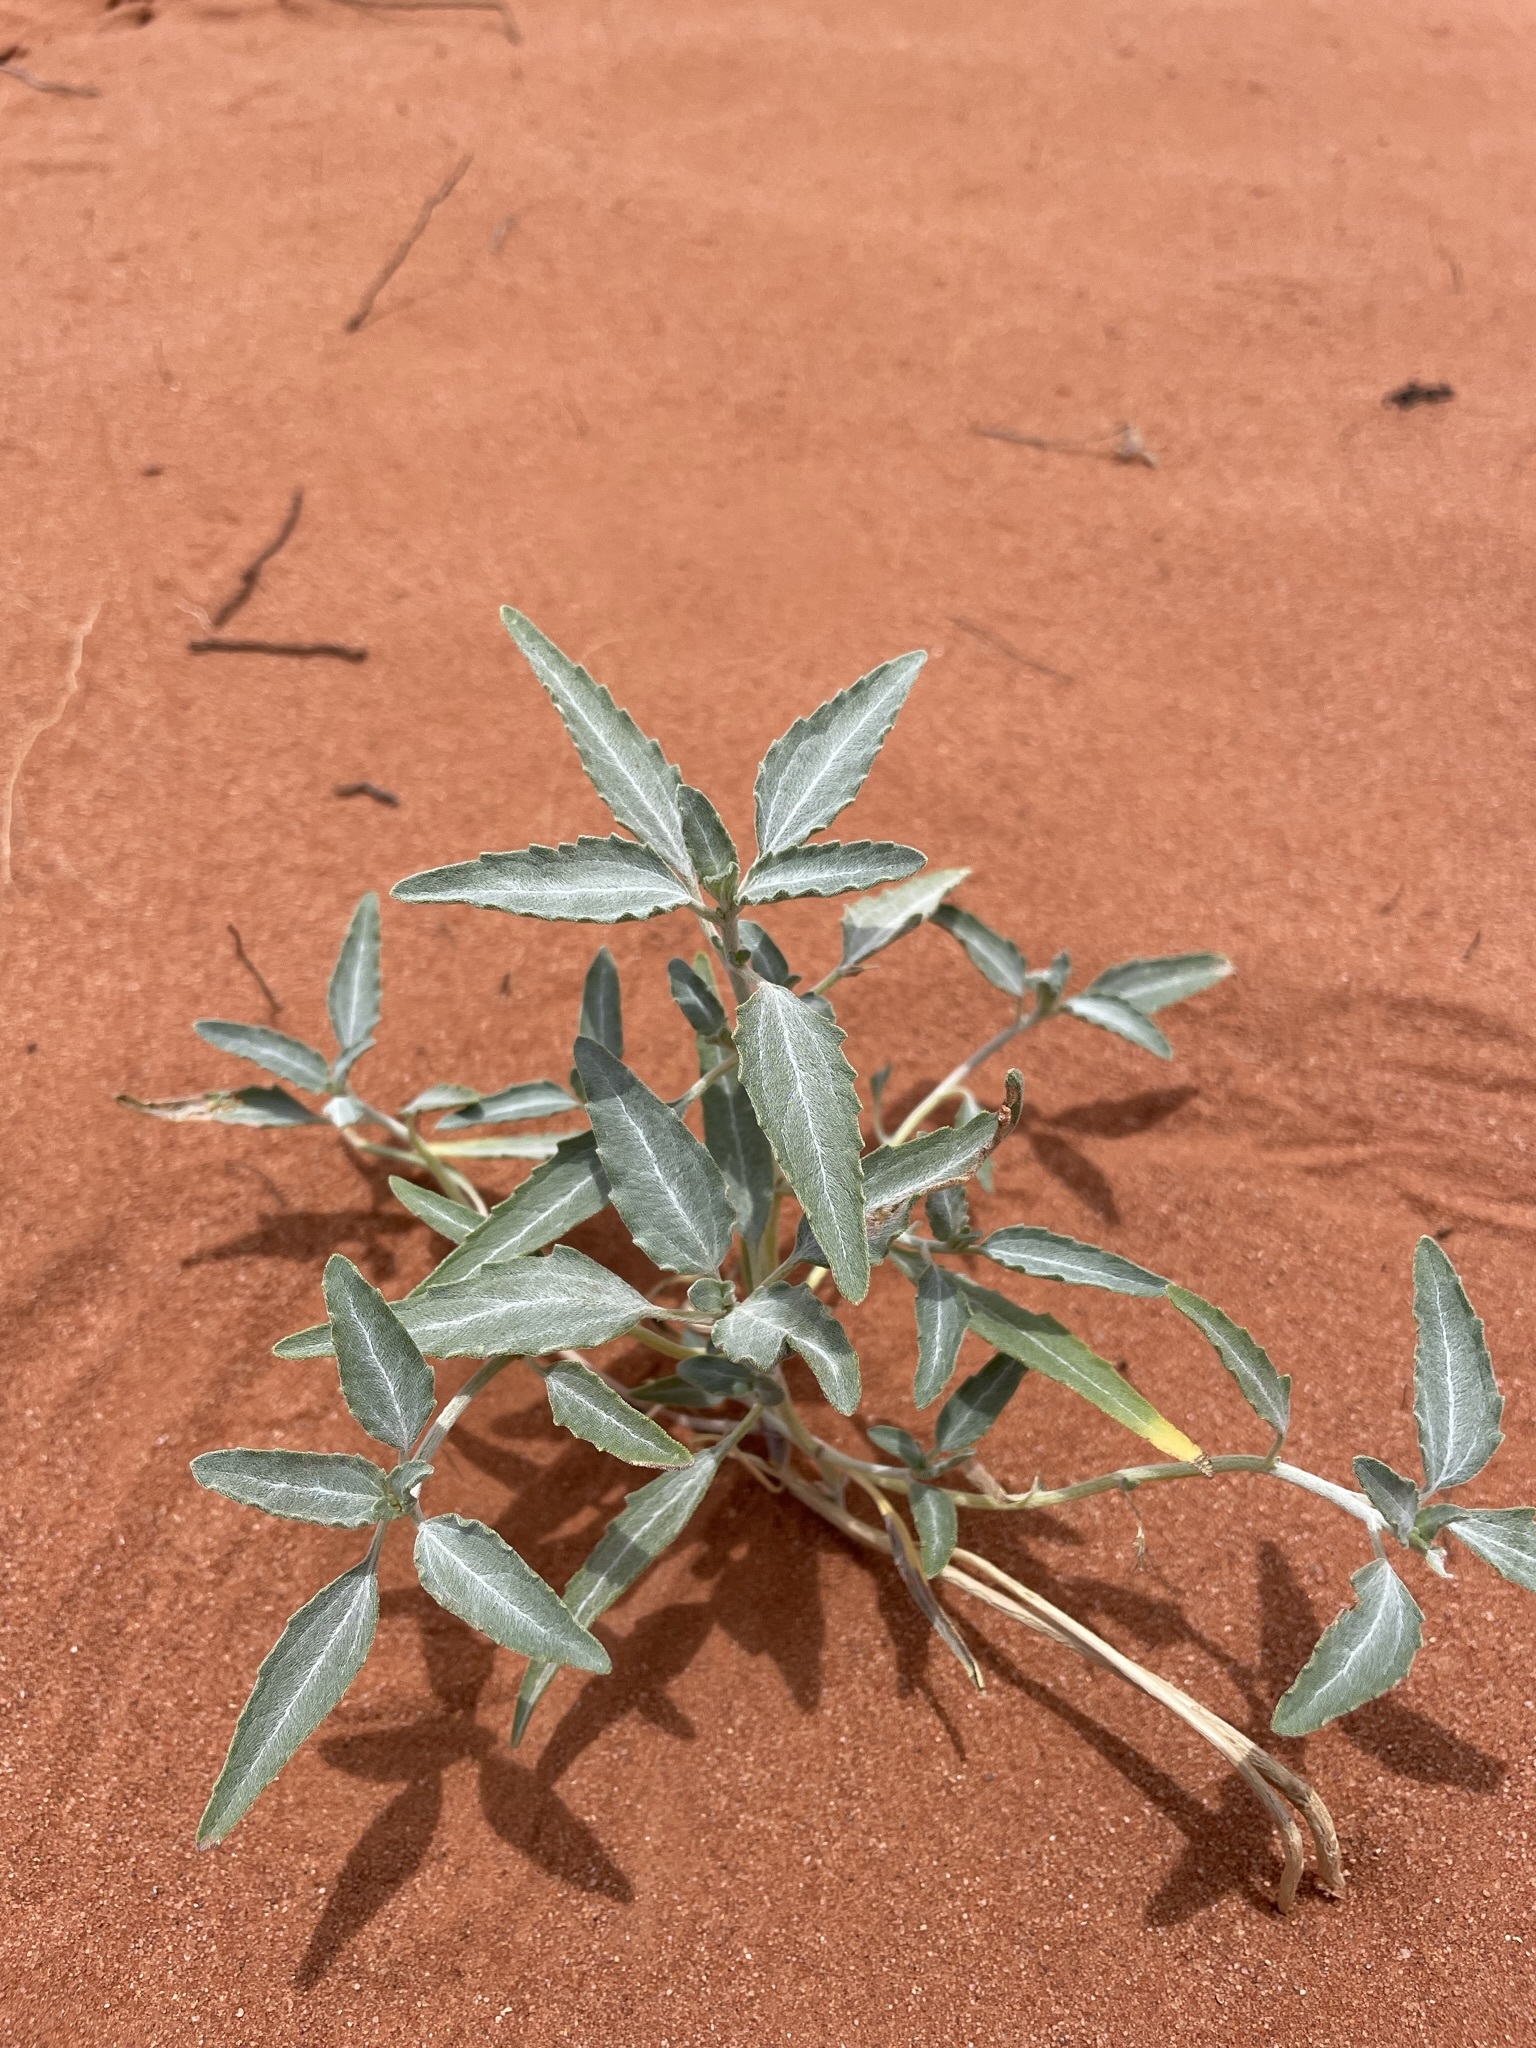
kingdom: Plantae
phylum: Tracheophyta
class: Magnoliopsida
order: Asterales
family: Asteraceae
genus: Dicoria
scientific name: Dicoria canescens
